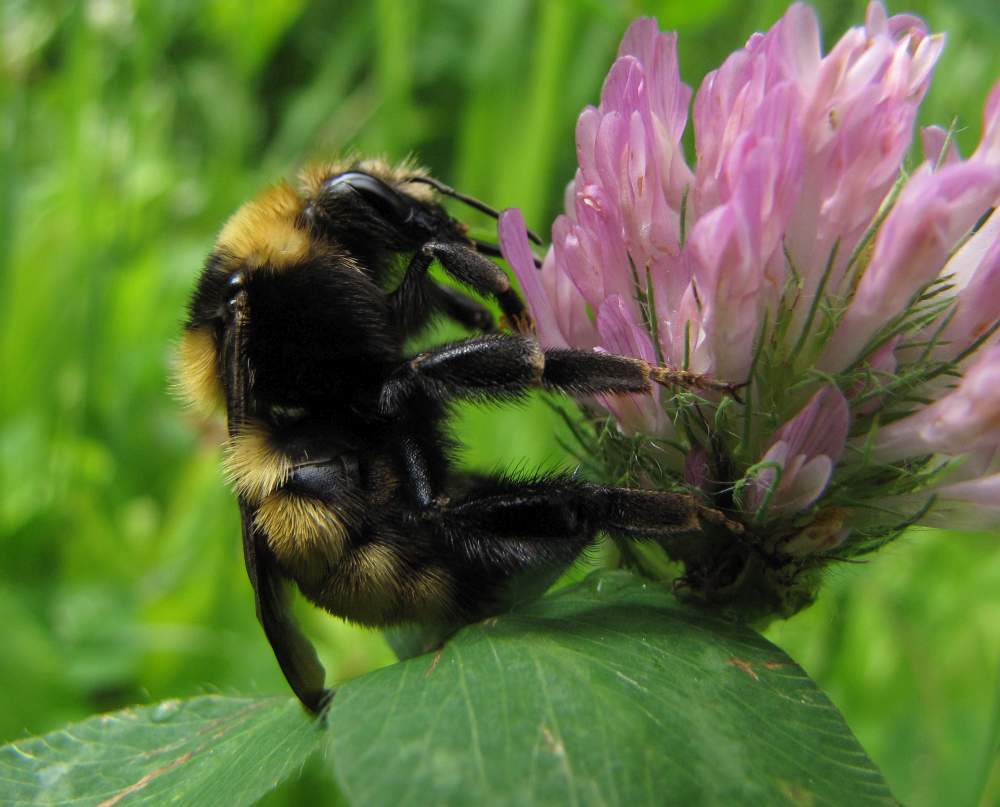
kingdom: Animalia
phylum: Arthropoda
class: Insecta
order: Hymenoptera
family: Apidae
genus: Bombus
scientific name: Bombus borealis
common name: Northern amber bumble bee
